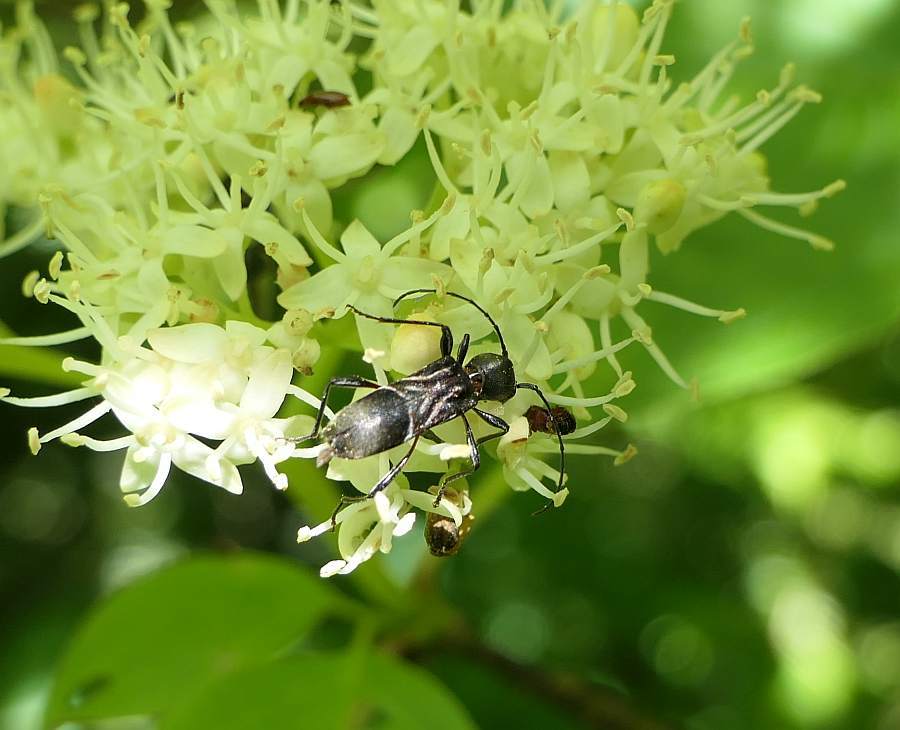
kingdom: Animalia
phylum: Arthropoda
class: Insecta
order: Coleoptera
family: Cerambycidae
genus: Cyrtophorus
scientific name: Cyrtophorus verrucosus
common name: Ant-like longhorn beetle
